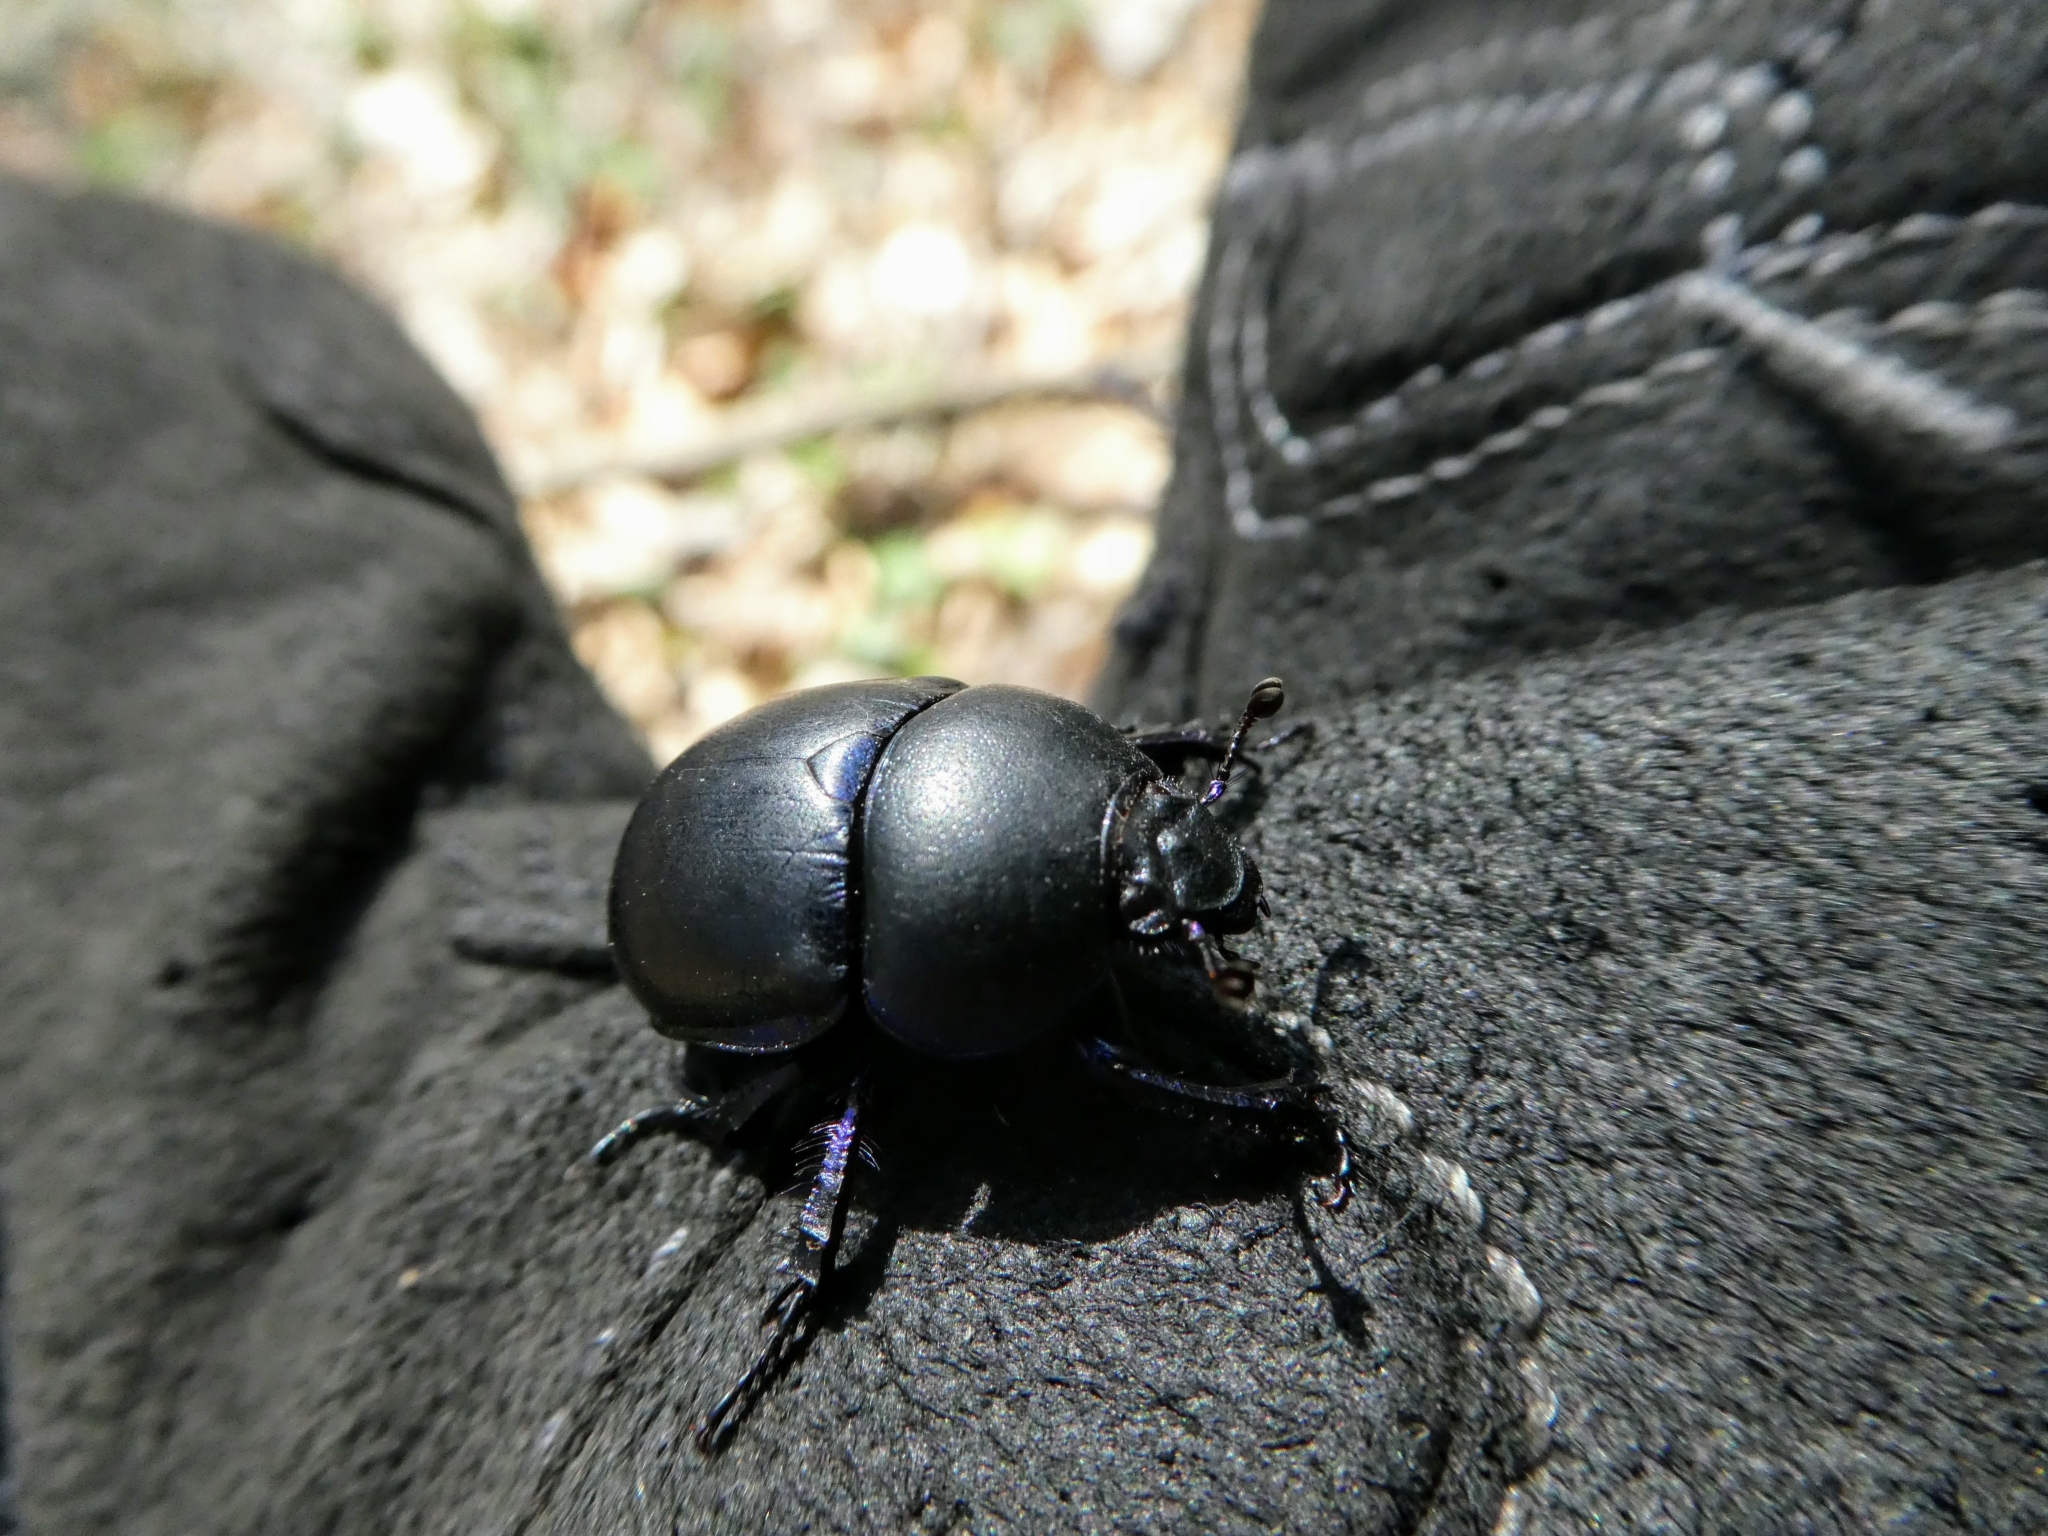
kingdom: Animalia
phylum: Arthropoda
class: Insecta
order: Coleoptera
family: Geotrupidae
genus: Anoplotrupes
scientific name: Anoplotrupes stercorosus
